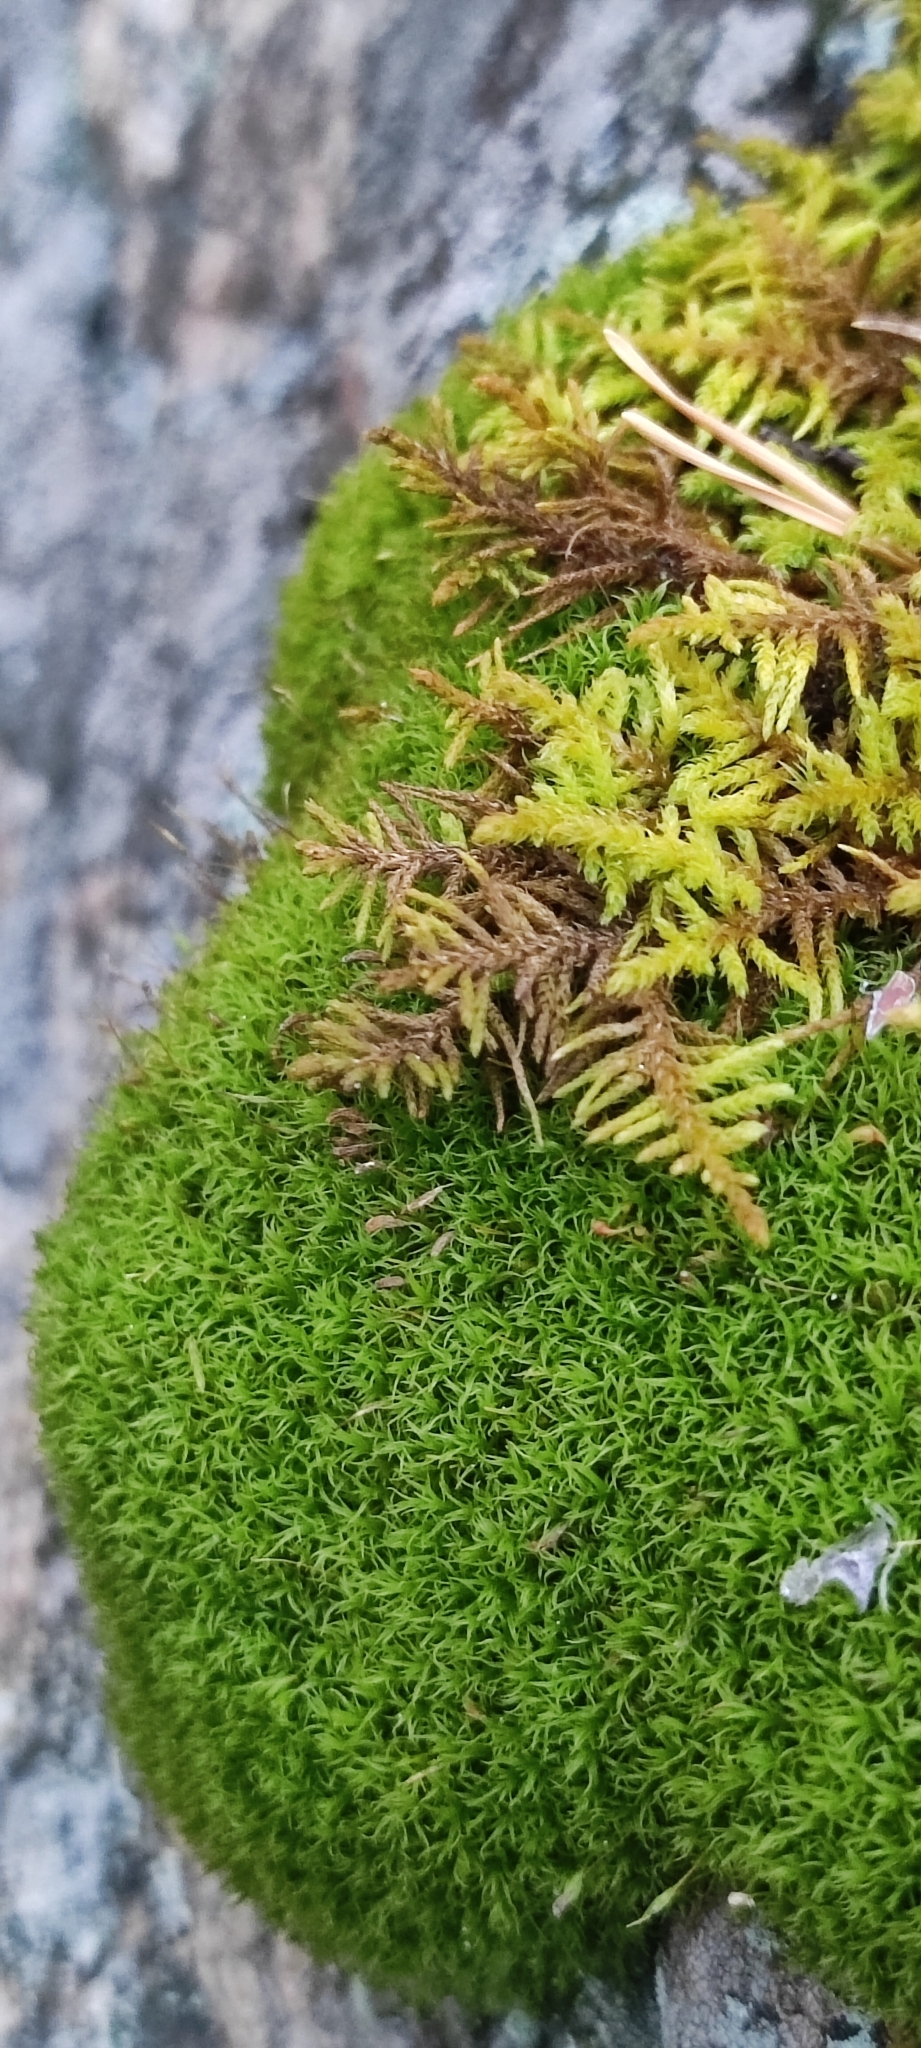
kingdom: Plantae
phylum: Bryophyta
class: Bryopsida
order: Hypnales
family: Thuidiaceae
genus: Abietinella
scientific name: Abietinella abietina
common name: Wiry fern moss
